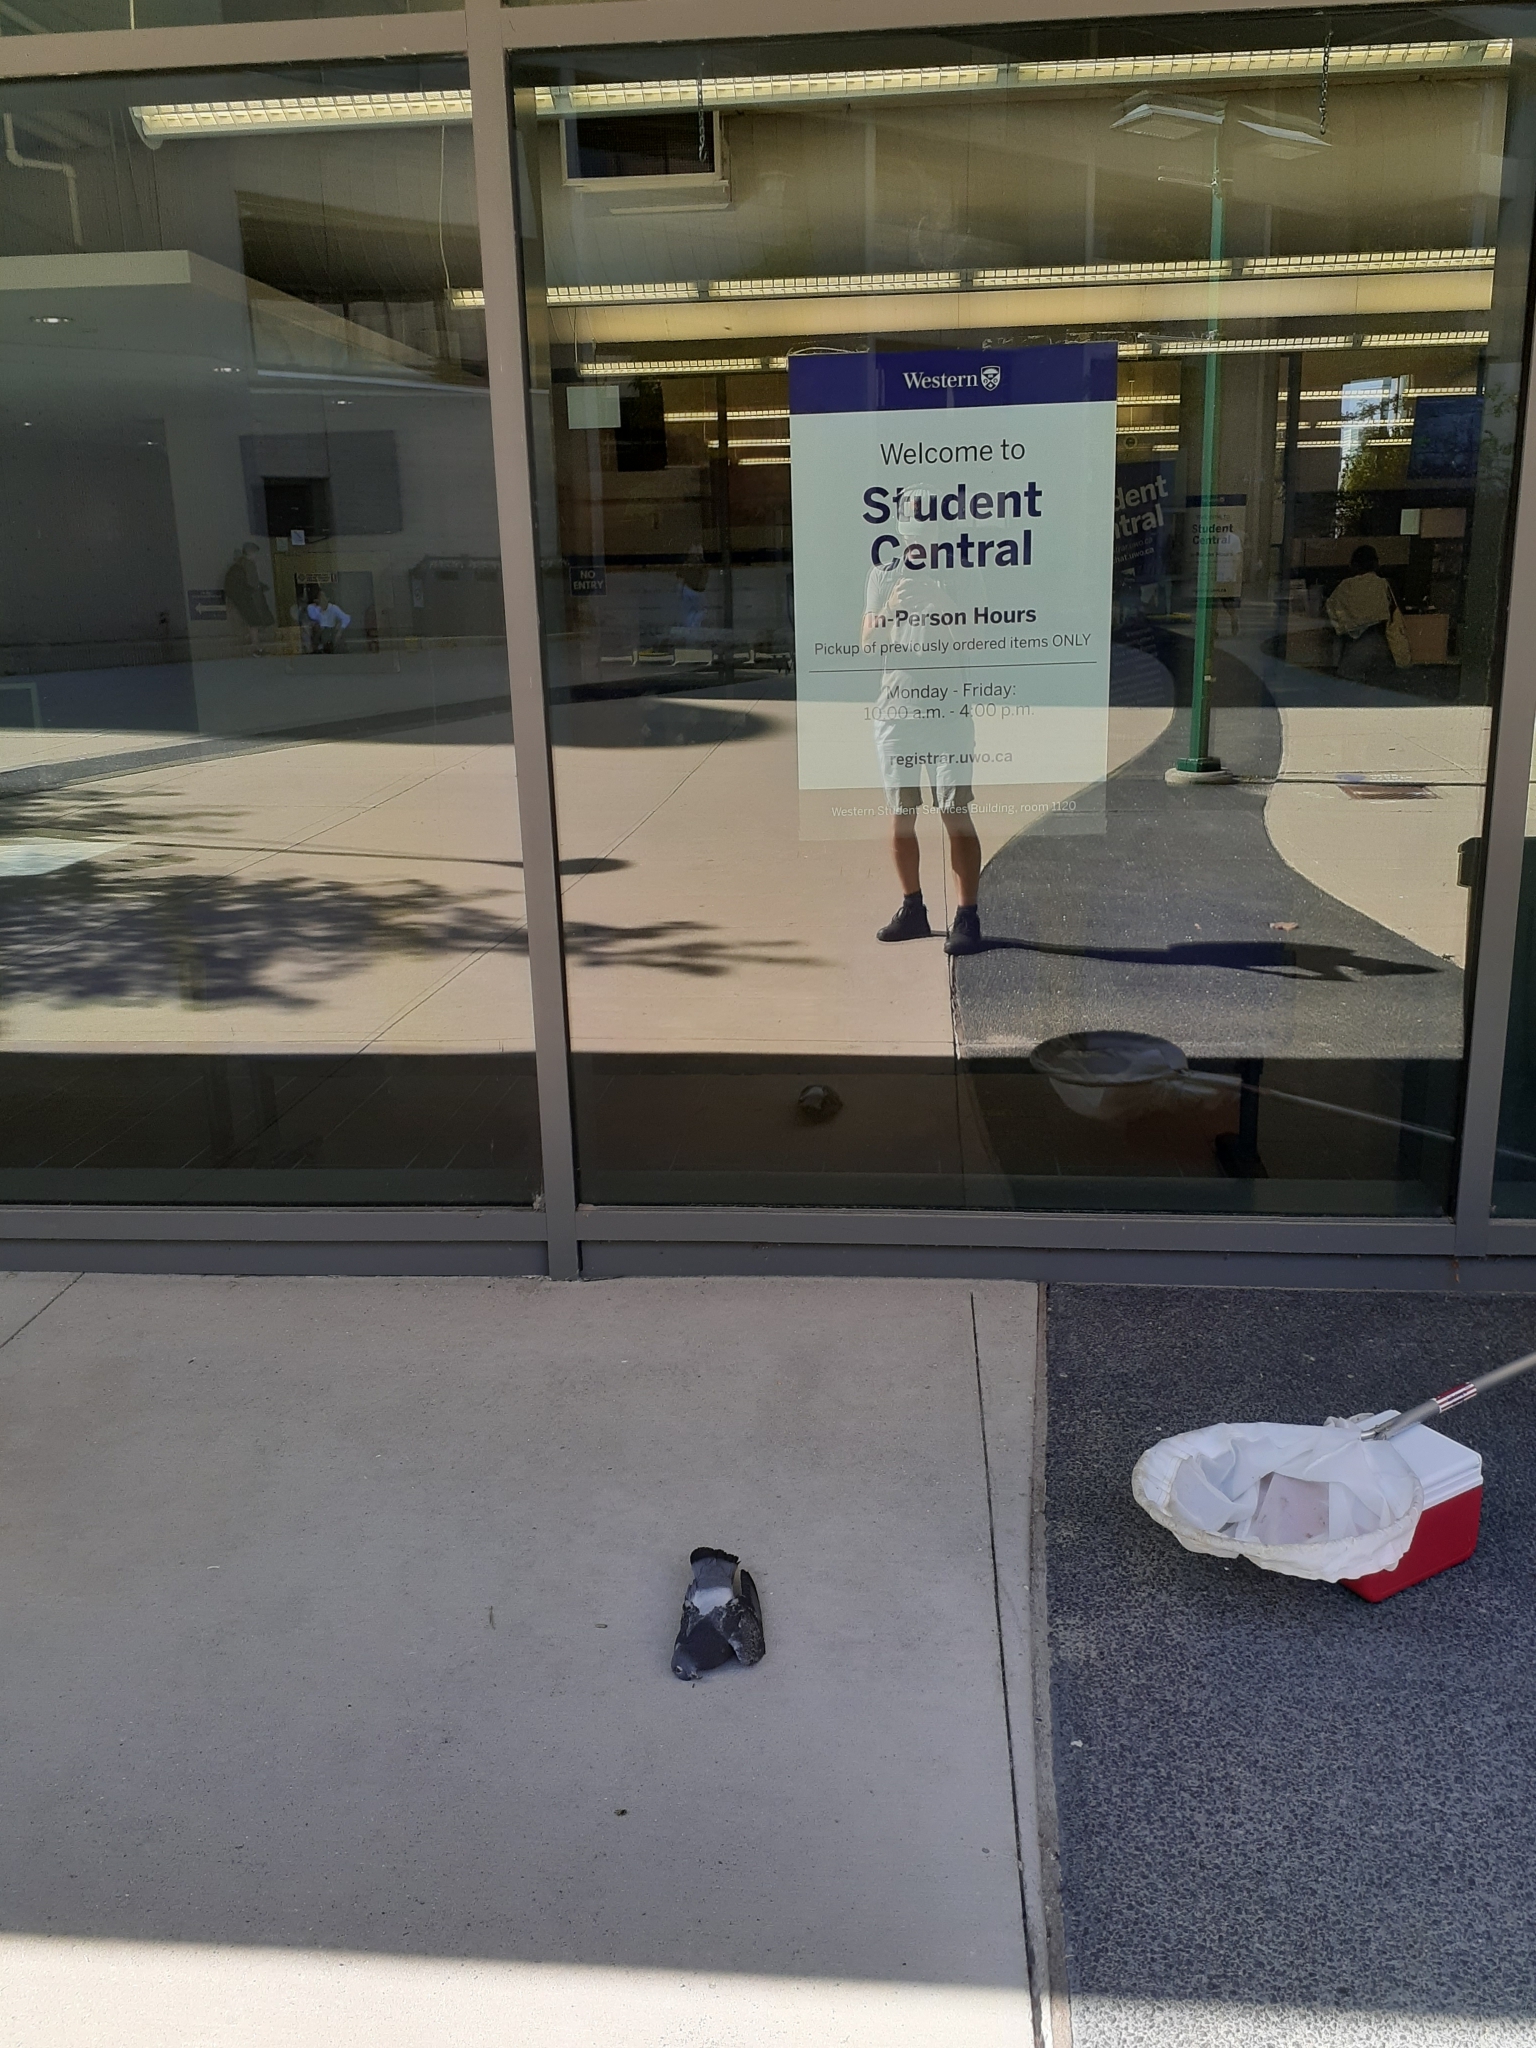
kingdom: Animalia
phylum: Chordata
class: Aves
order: Columbiformes
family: Columbidae
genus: Columba
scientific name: Columba livia
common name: Rock pigeon
